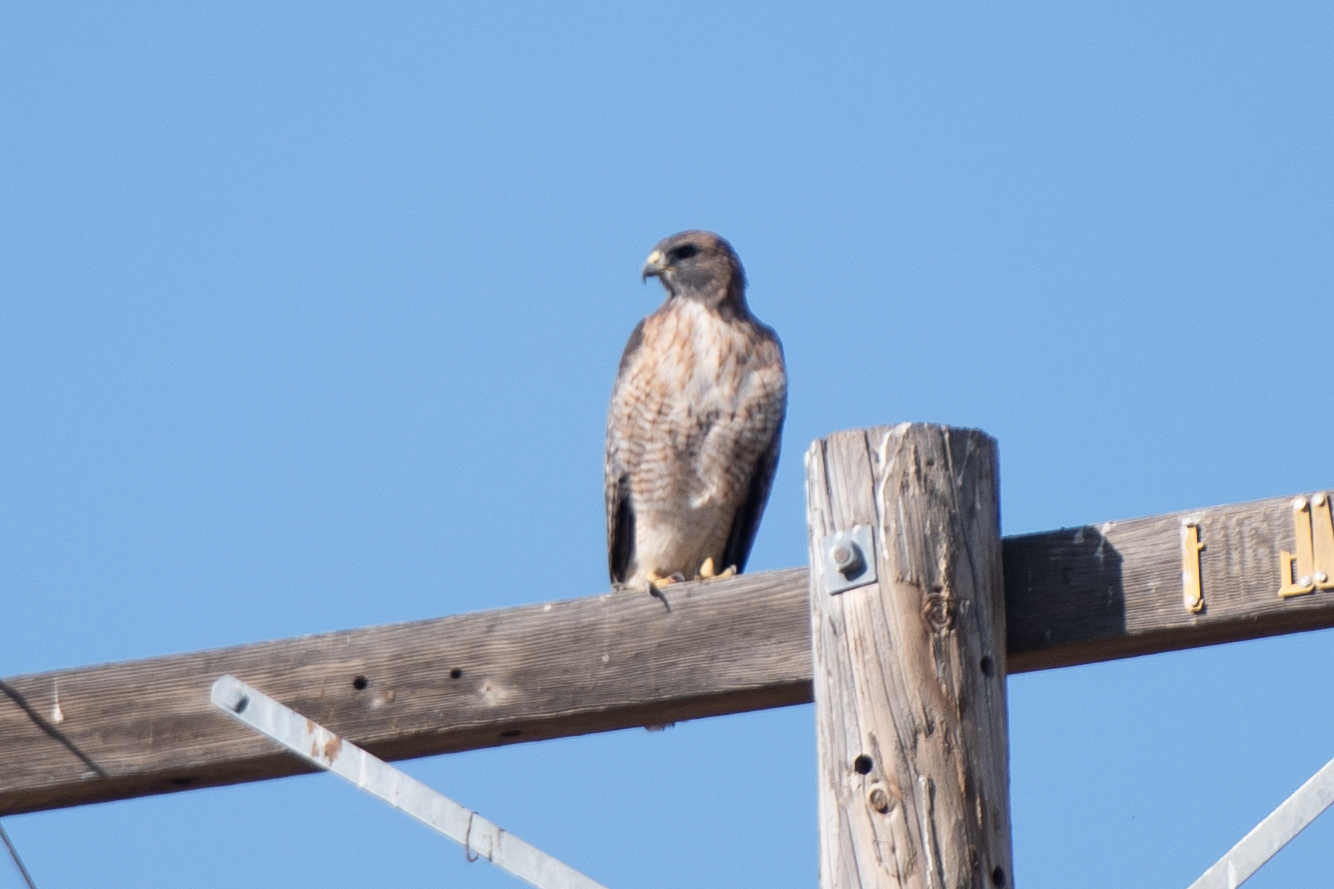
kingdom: Animalia
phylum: Chordata
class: Aves
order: Accipitriformes
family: Accipitridae
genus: Buteo
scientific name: Buteo jamaicensis
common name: Red-tailed hawk
